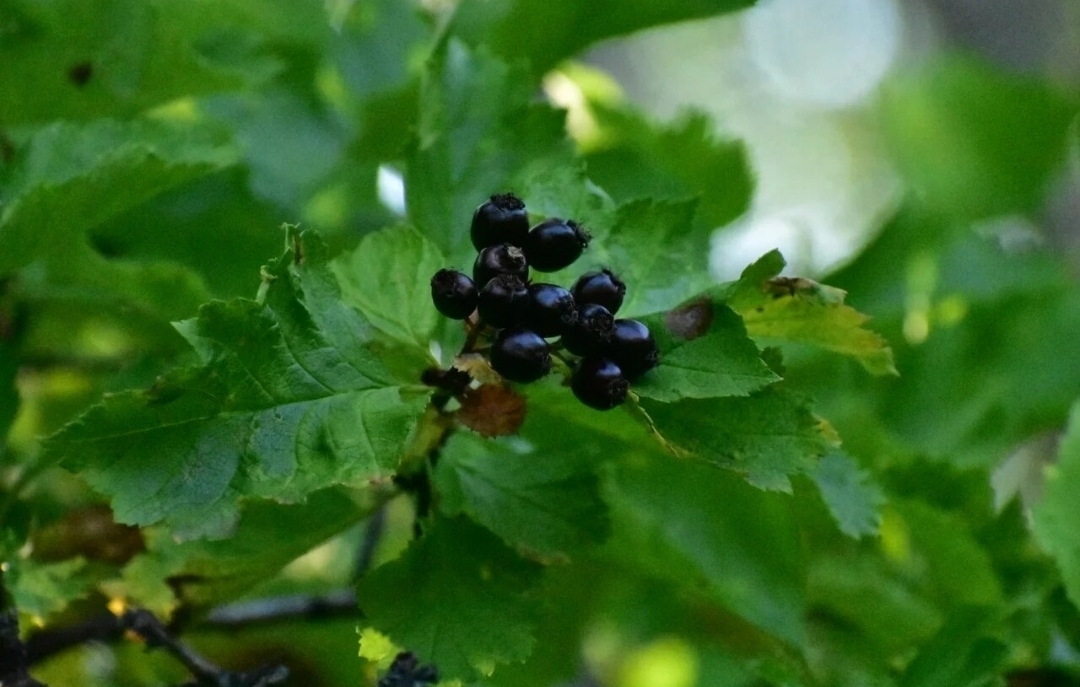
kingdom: Plantae
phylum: Tracheophyta
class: Magnoliopsida
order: Rosales
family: Rosaceae
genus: Crataegus
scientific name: Crataegus chlorosarca
